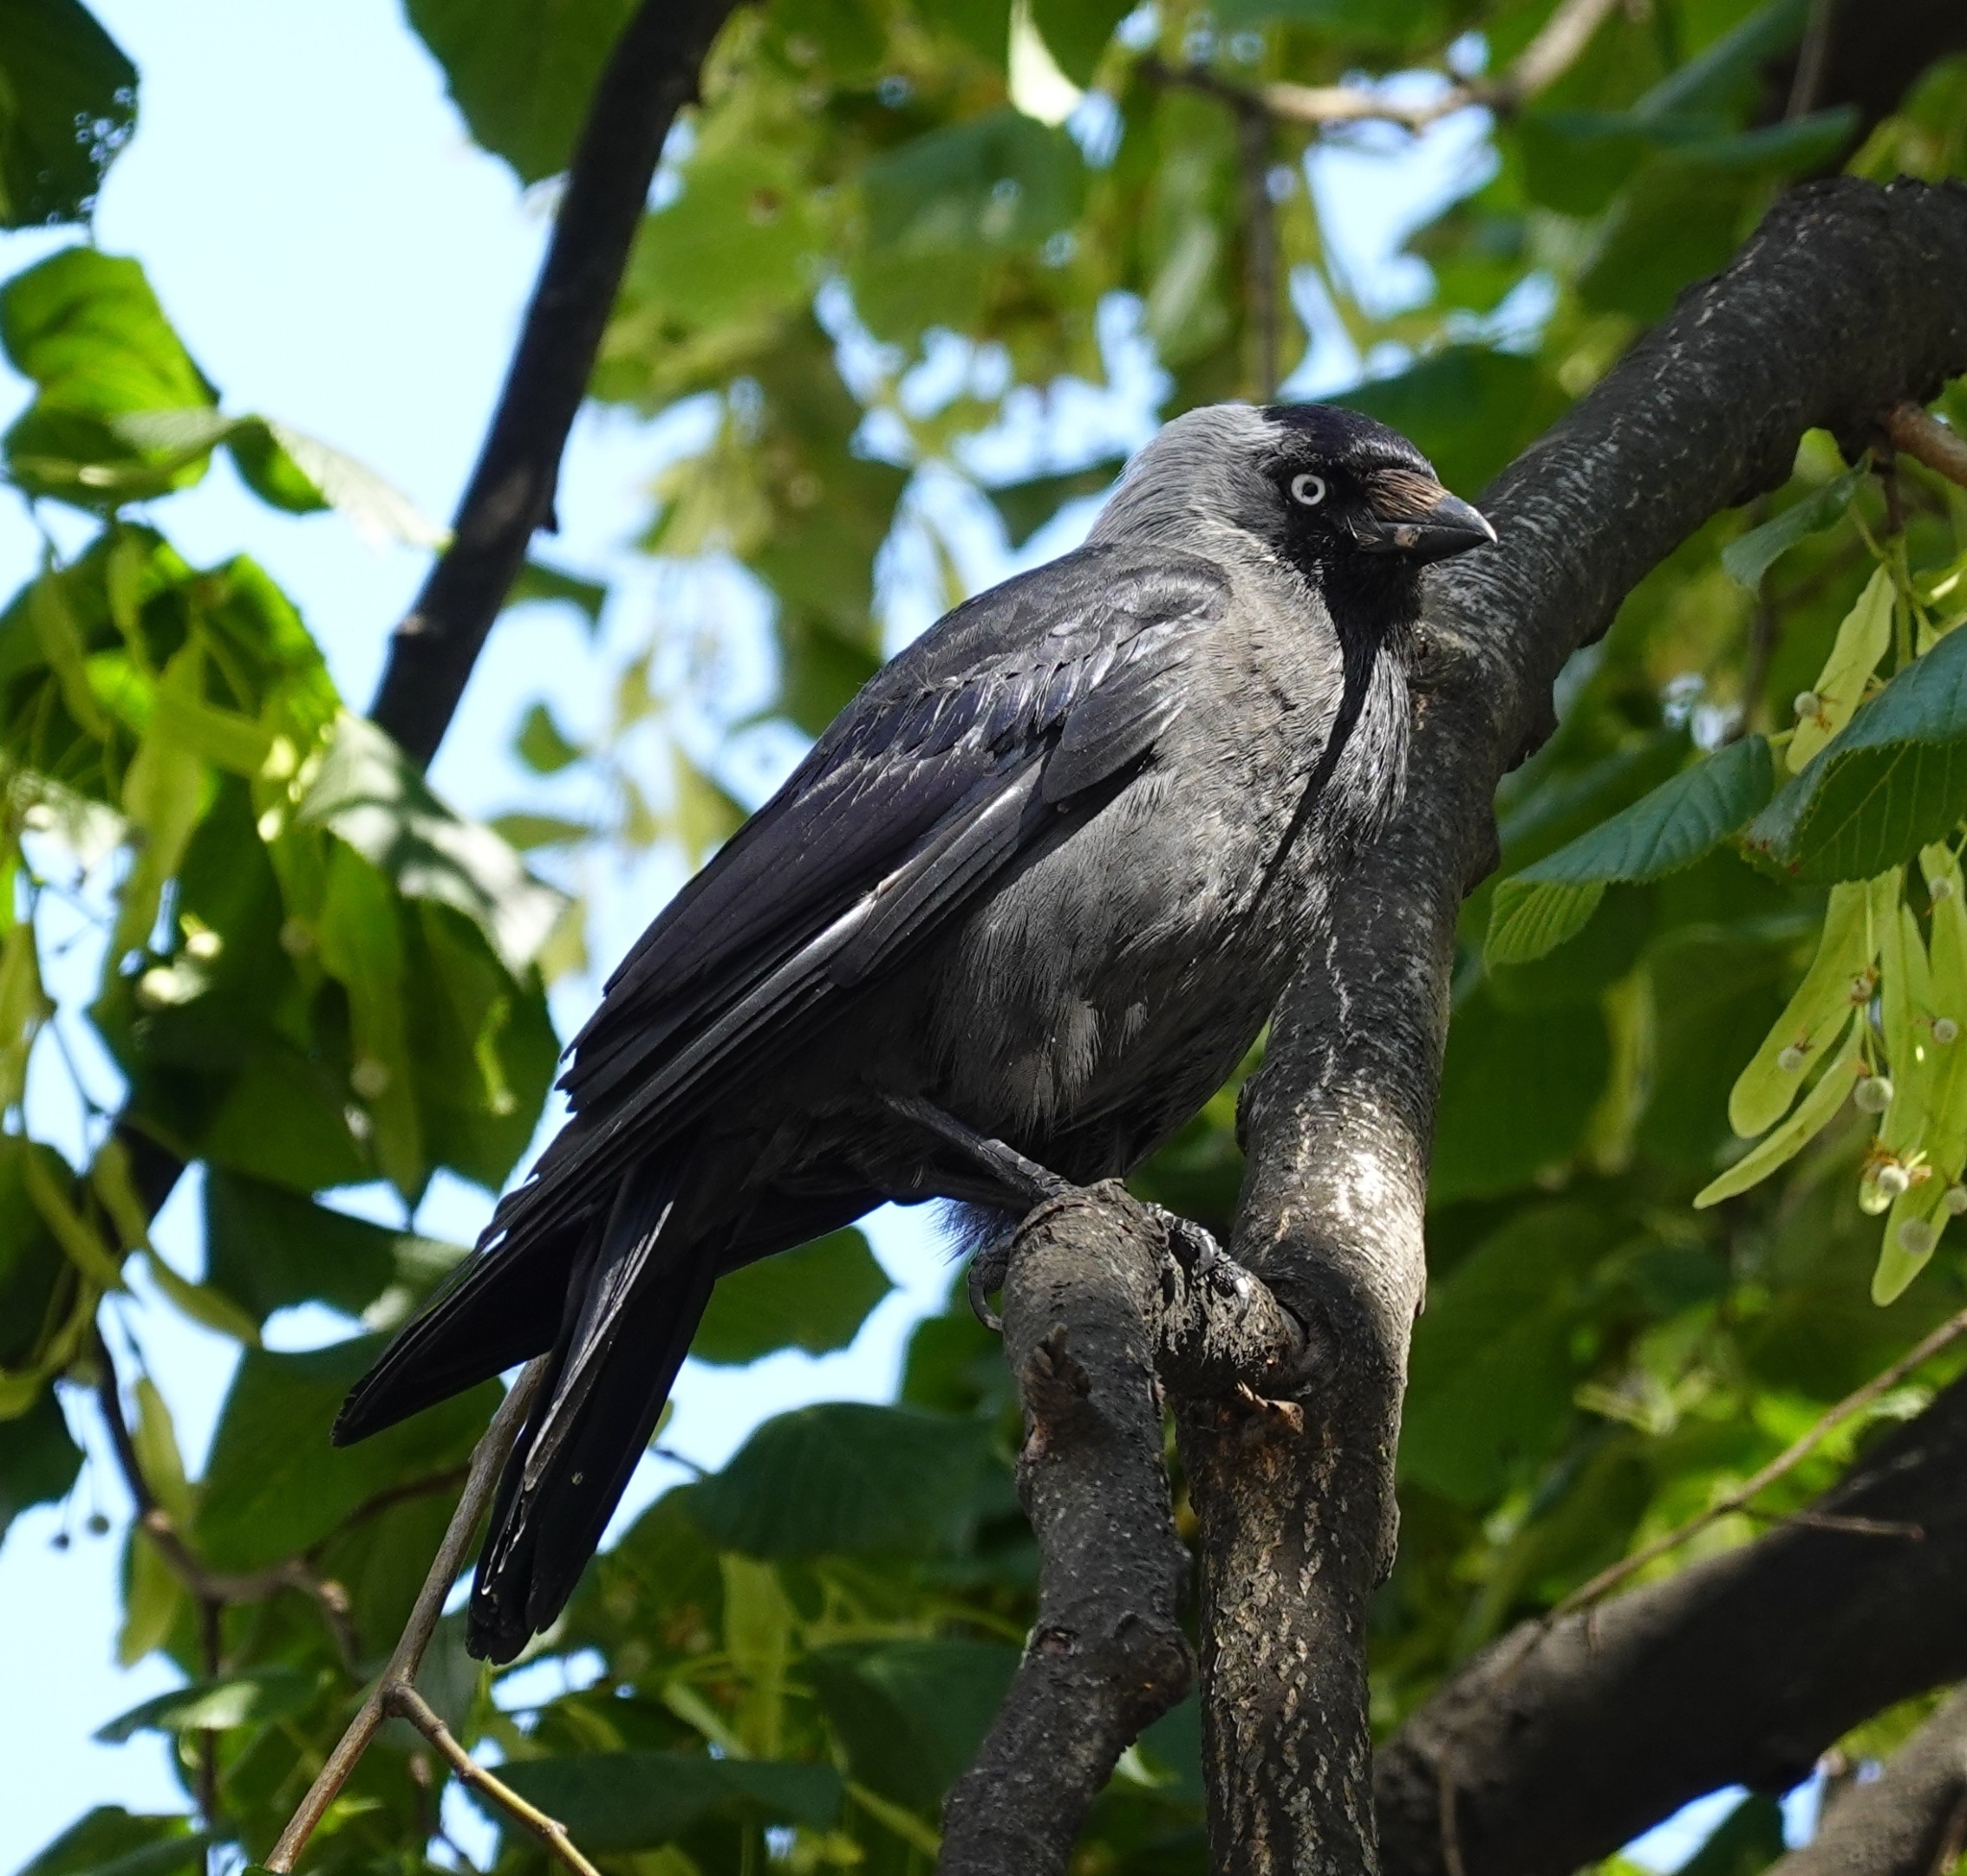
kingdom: Animalia
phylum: Chordata
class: Aves
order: Passeriformes
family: Corvidae
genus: Coloeus
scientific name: Coloeus monedula
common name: Western jackdaw
